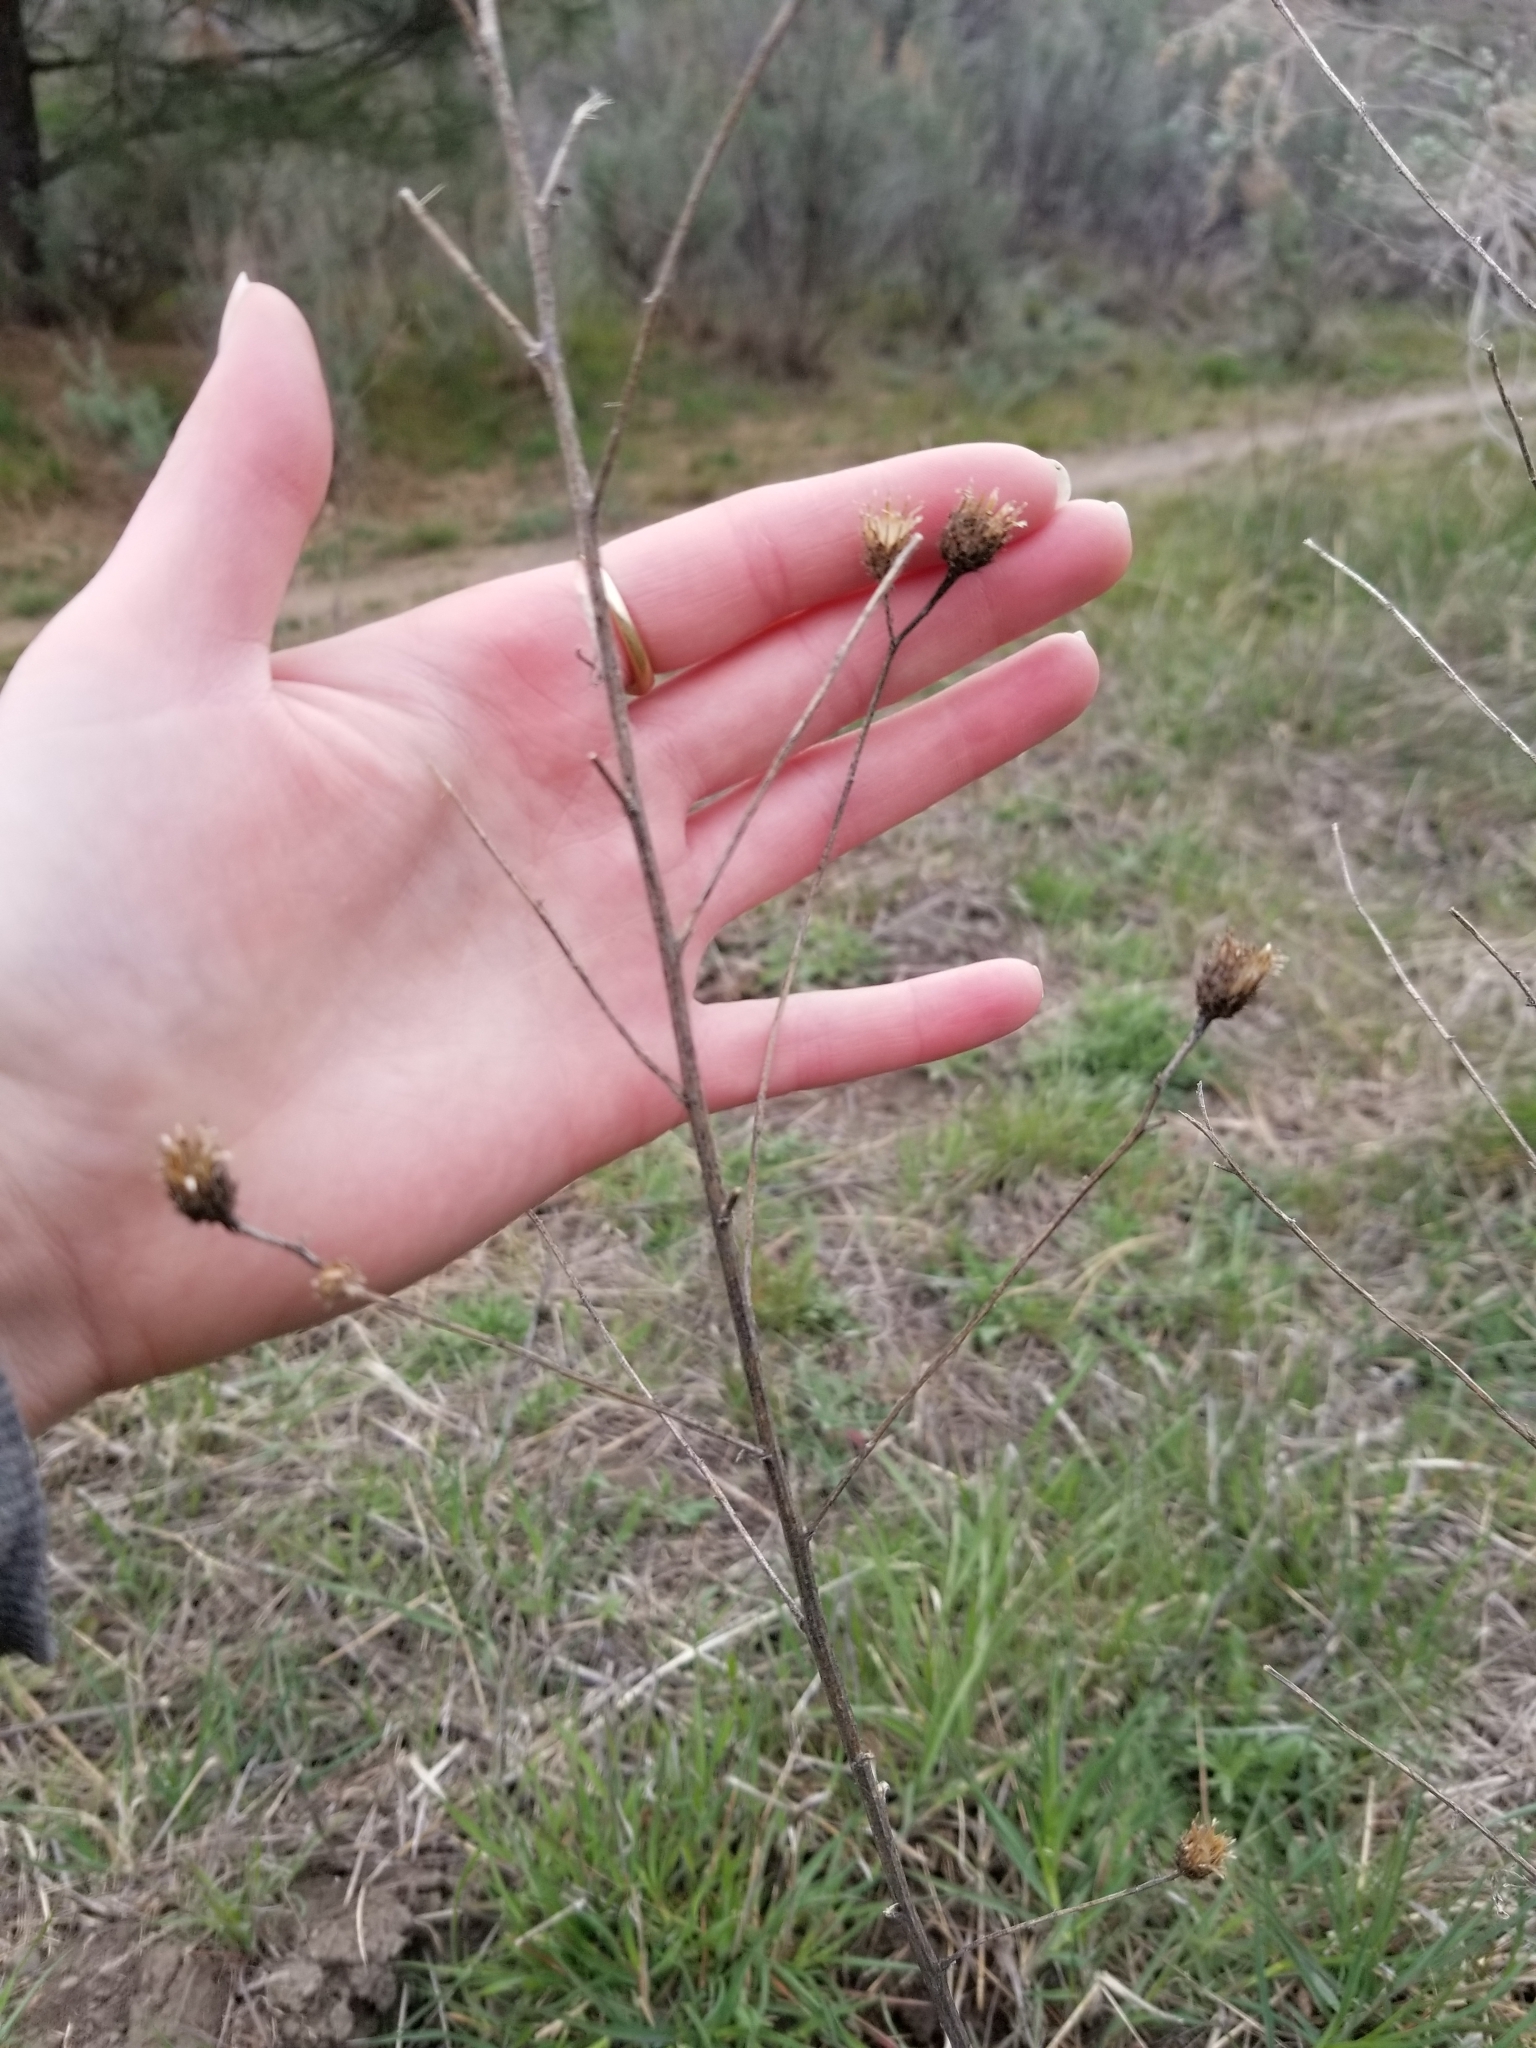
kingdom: Plantae
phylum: Tracheophyta
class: Magnoliopsida
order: Asterales
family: Asteraceae
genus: Centaurea
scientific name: Centaurea stoebe
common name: Spotted knapweed
